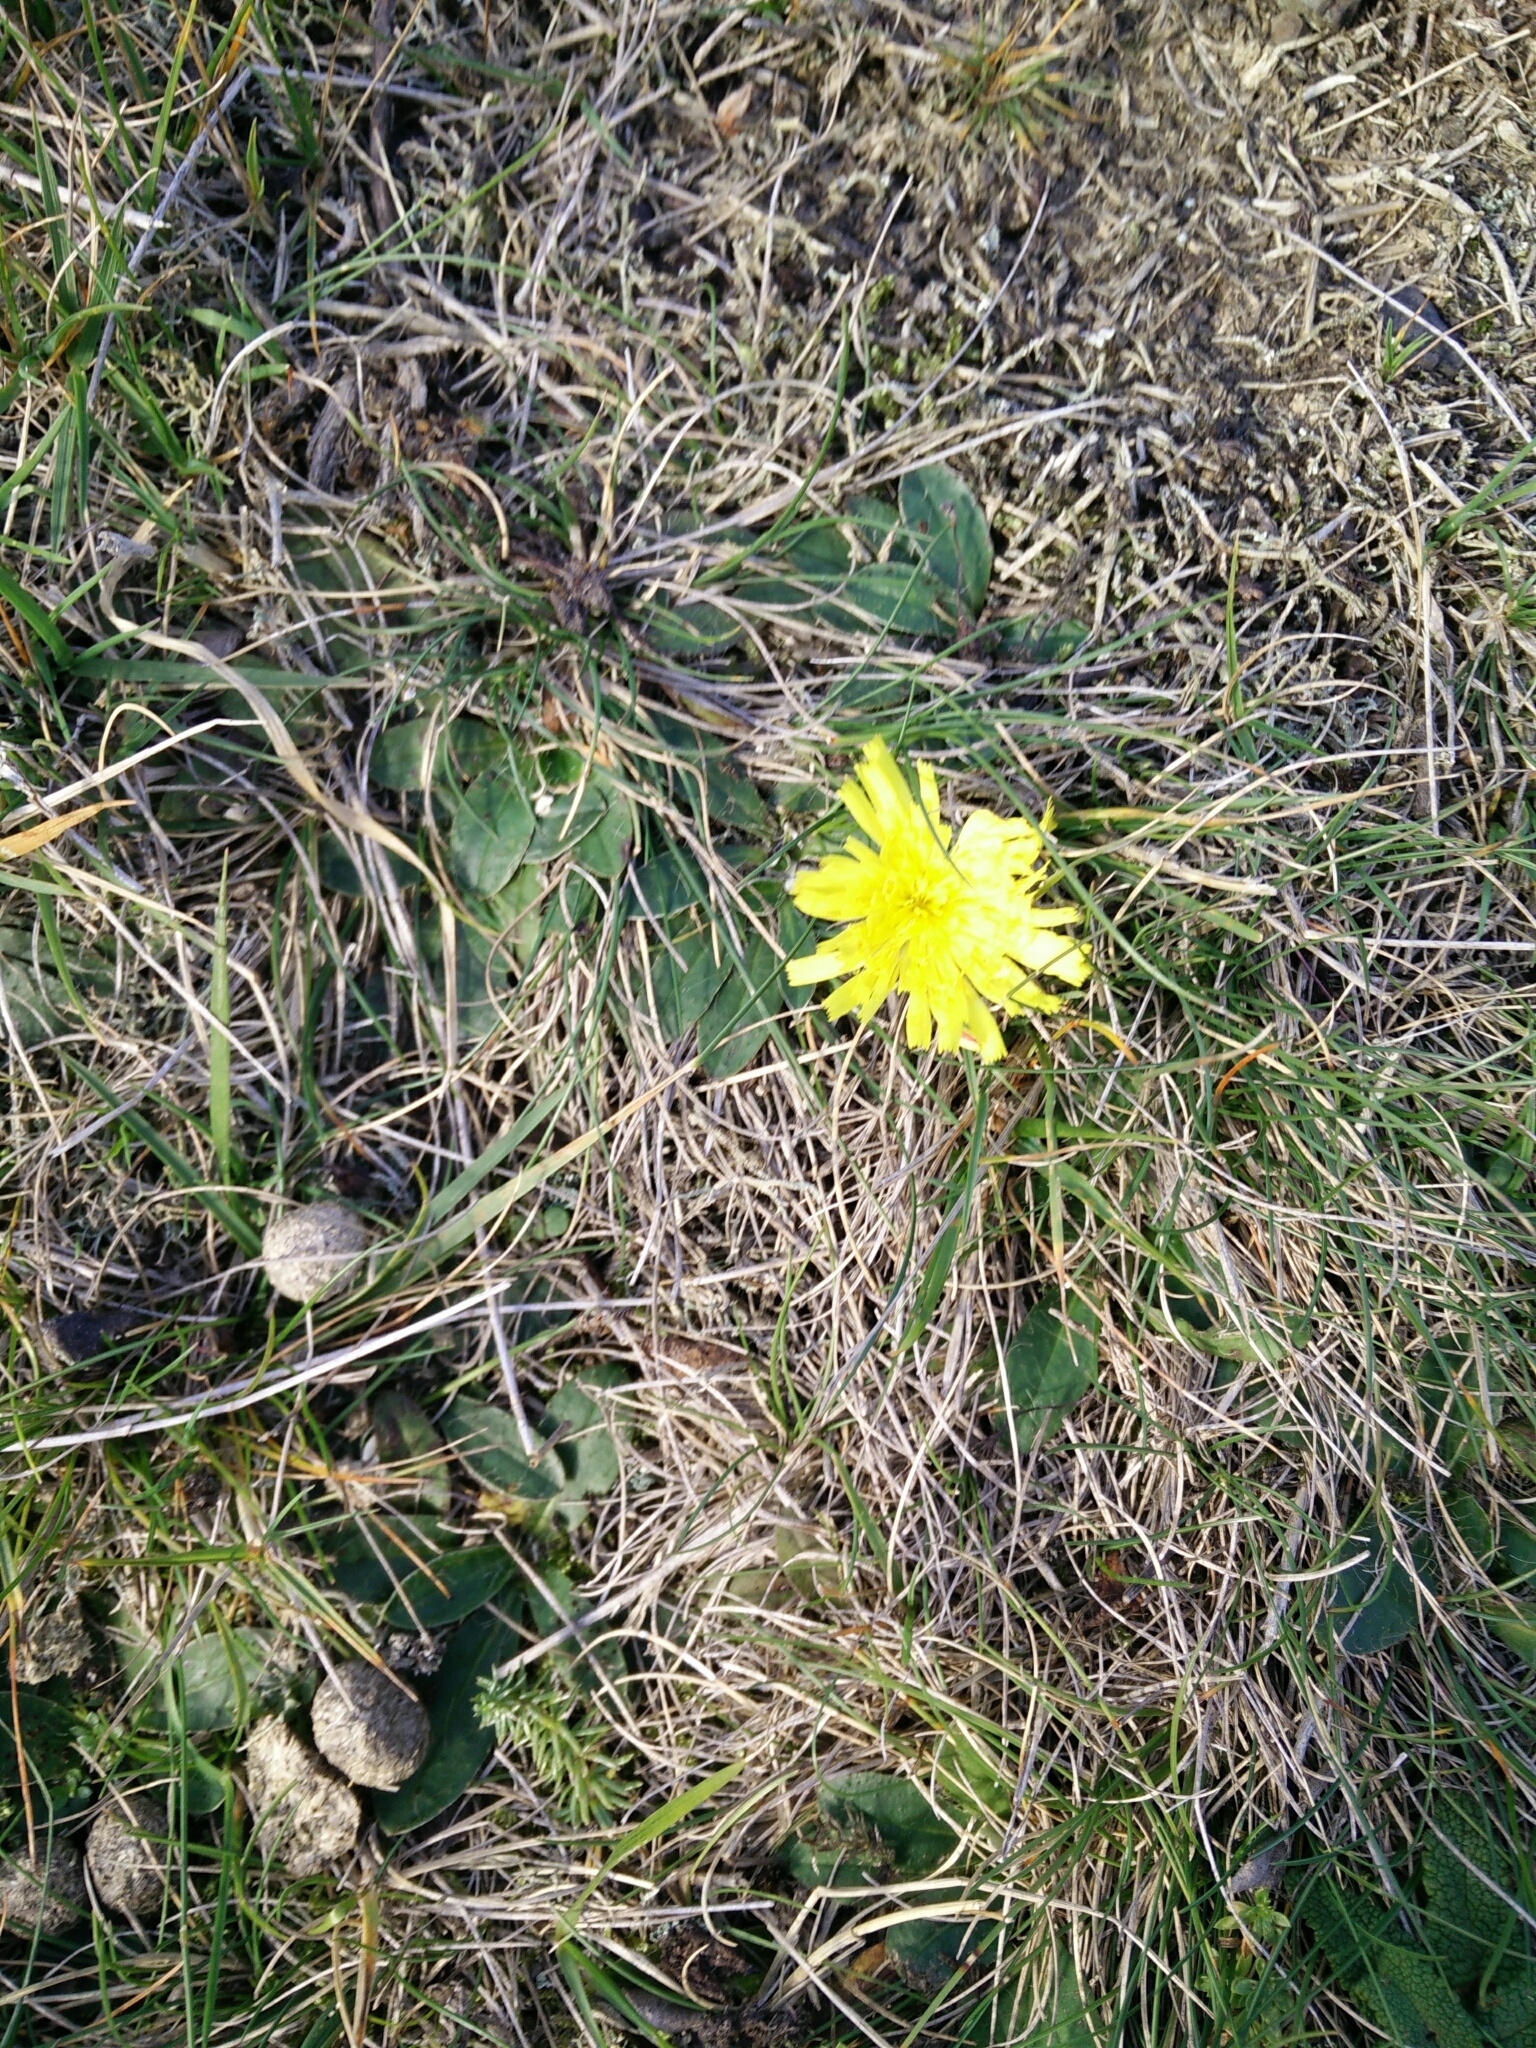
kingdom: Plantae
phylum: Tracheophyta
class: Magnoliopsida
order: Asterales
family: Asteraceae
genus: Pilosella
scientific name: Pilosella officinarum
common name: Mouse-ear hawkweed
